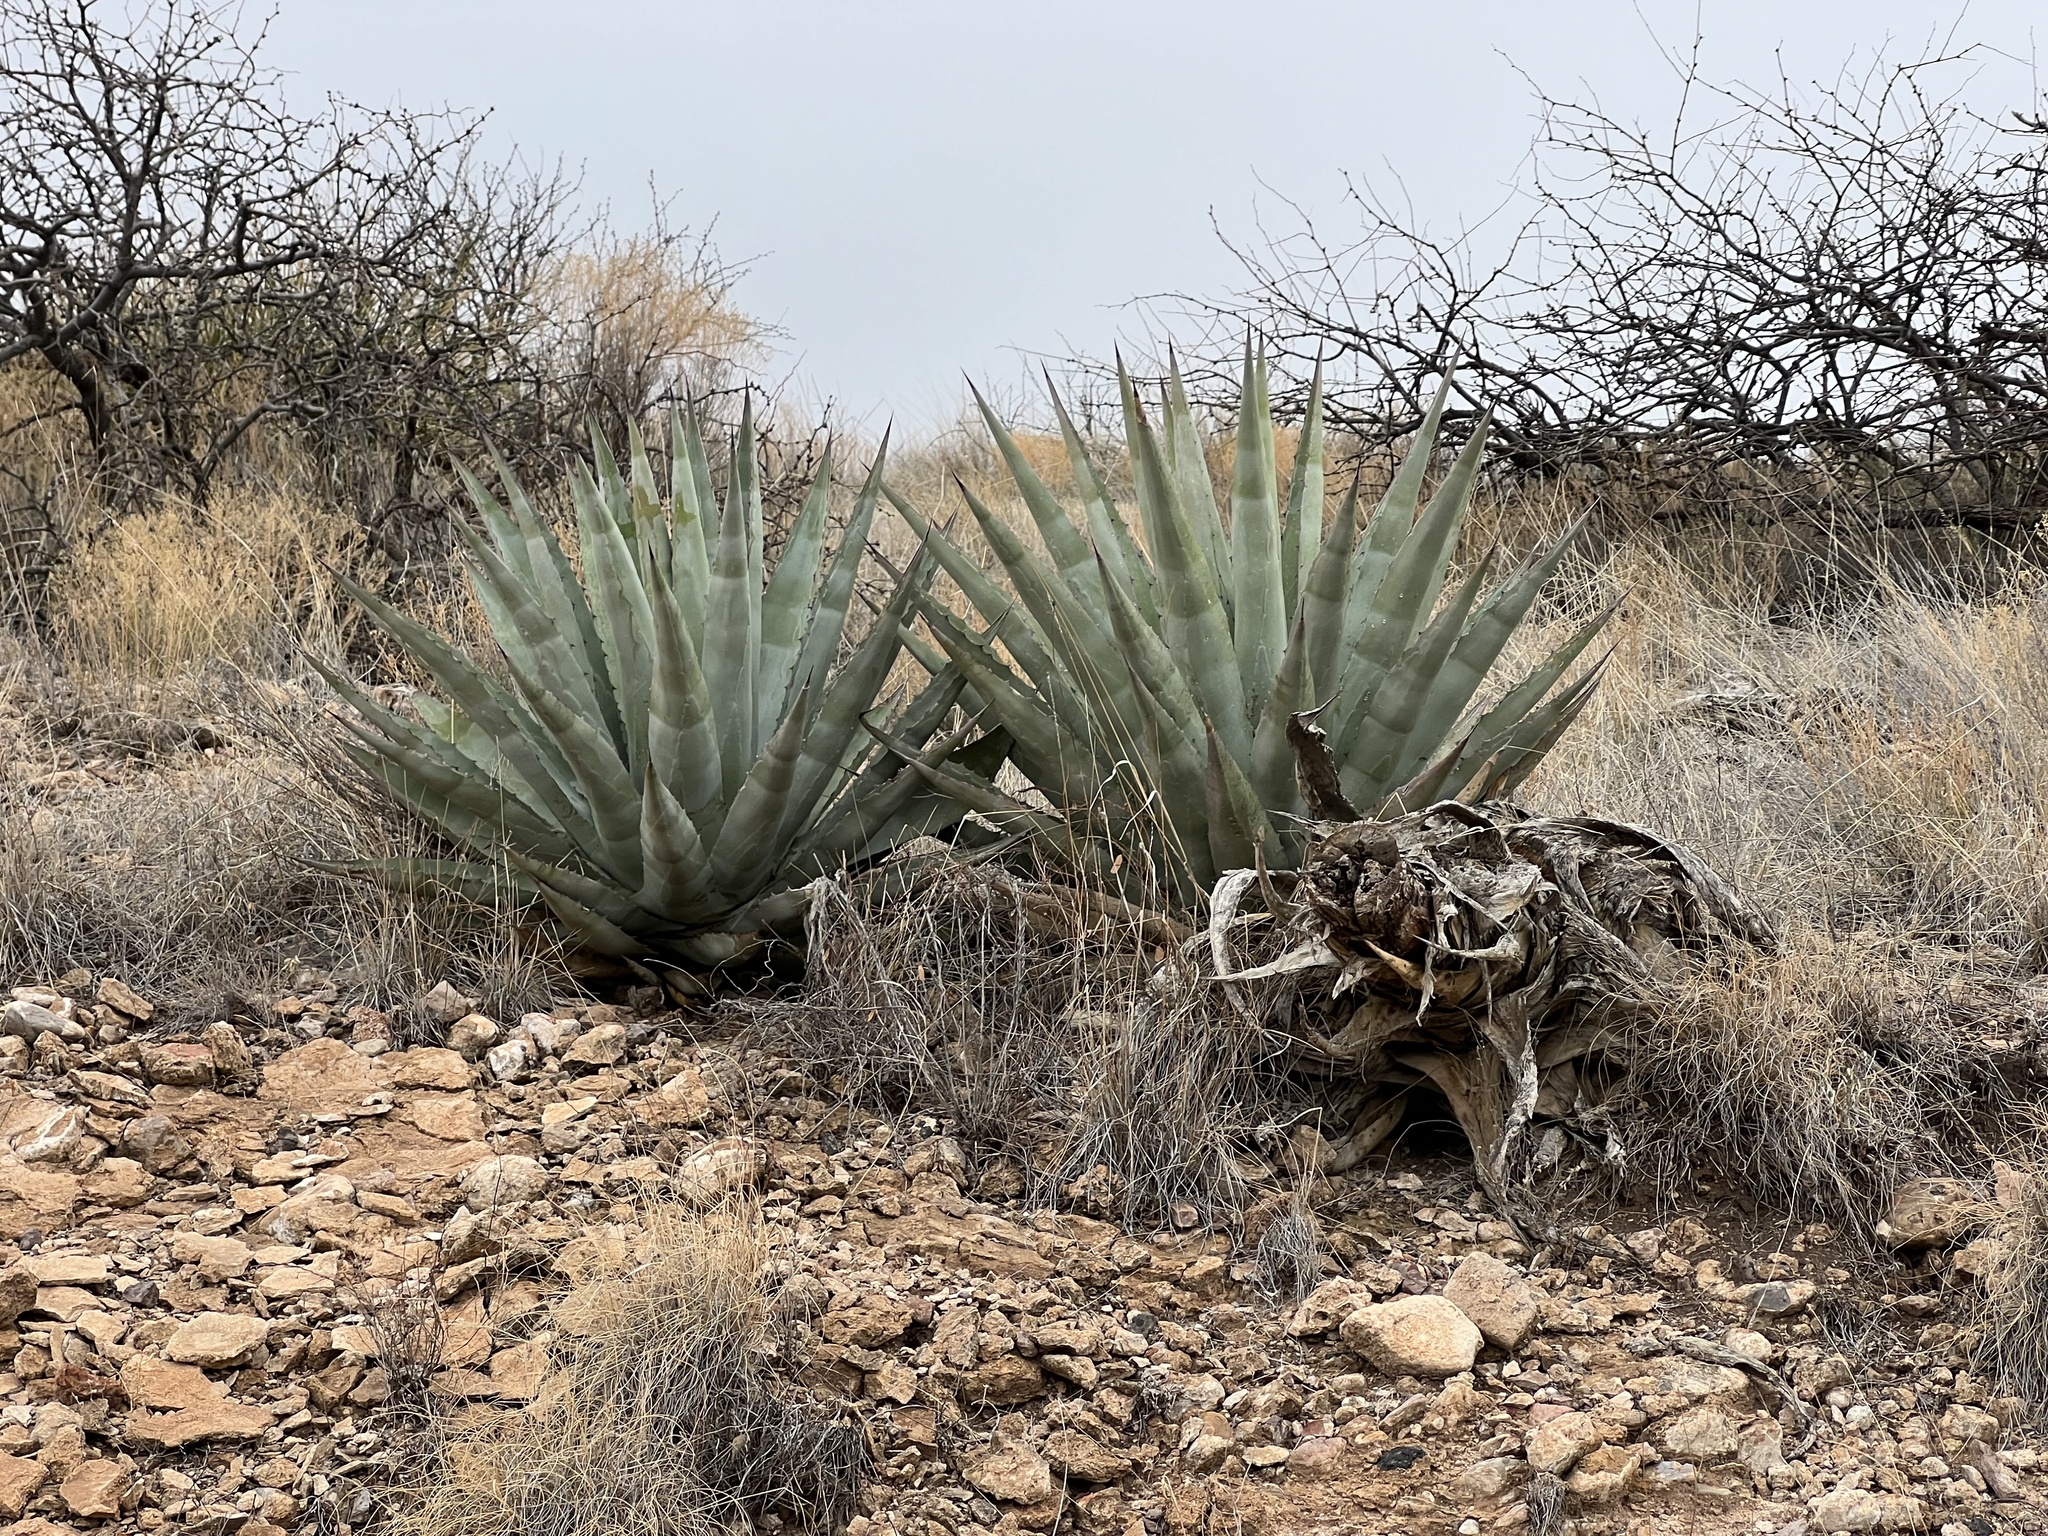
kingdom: Plantae
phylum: Tracheophyta
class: Liliopsida
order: Asparagales
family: Asparagaceae
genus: Agave
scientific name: Agave palmeri
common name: Palmer agave
